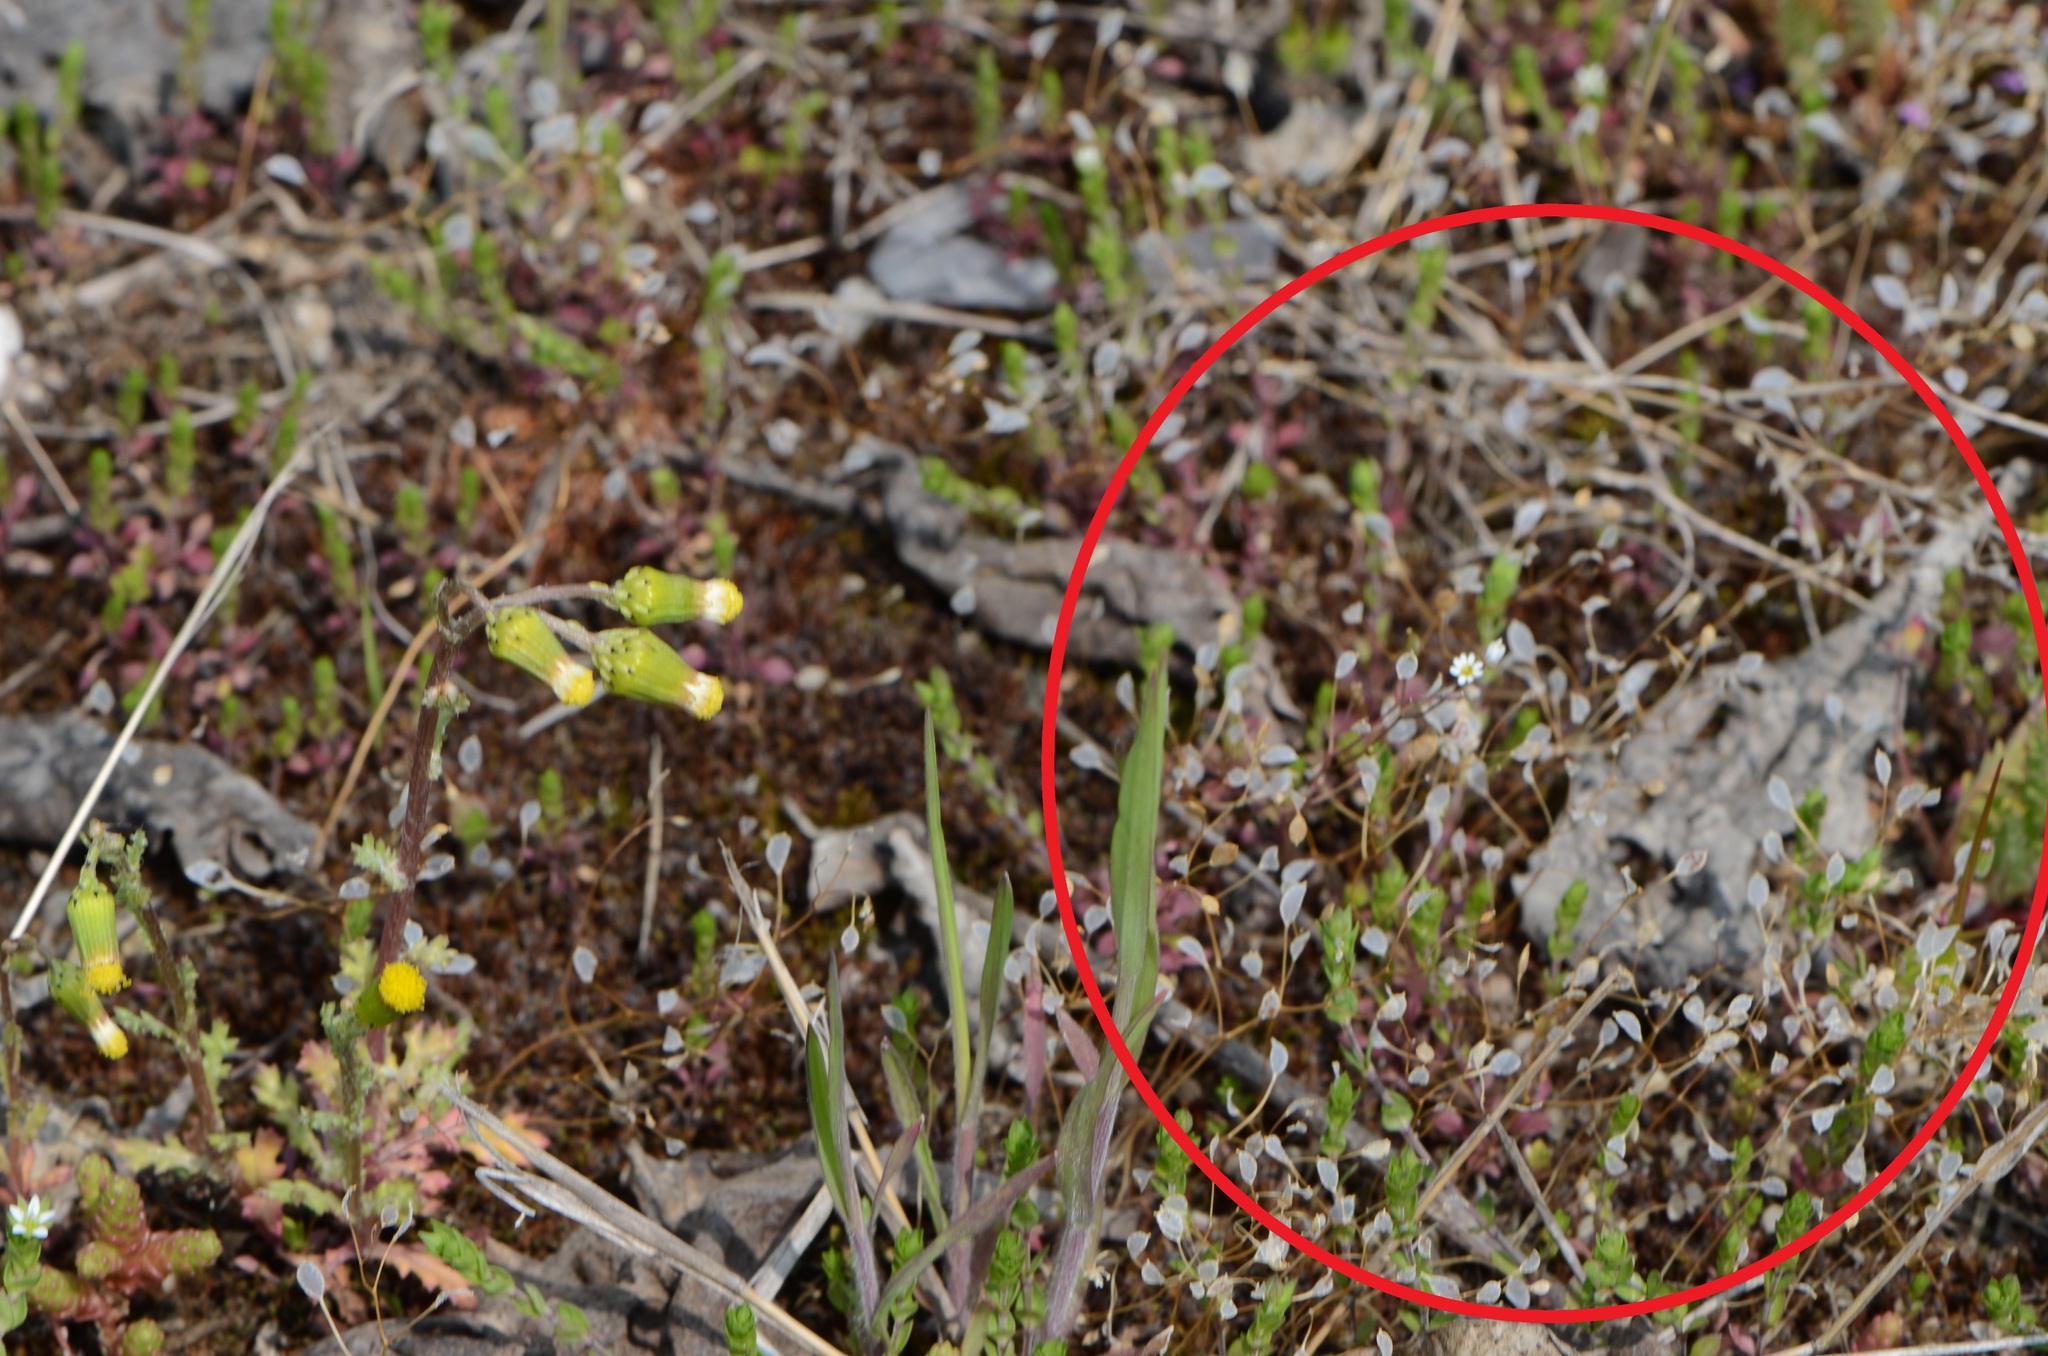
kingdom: Plantae
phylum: Tracheophyta
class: Magnoliopsida
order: Brassicales
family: Brassicaceae
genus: Draba
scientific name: Draba verna
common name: Spring draba
